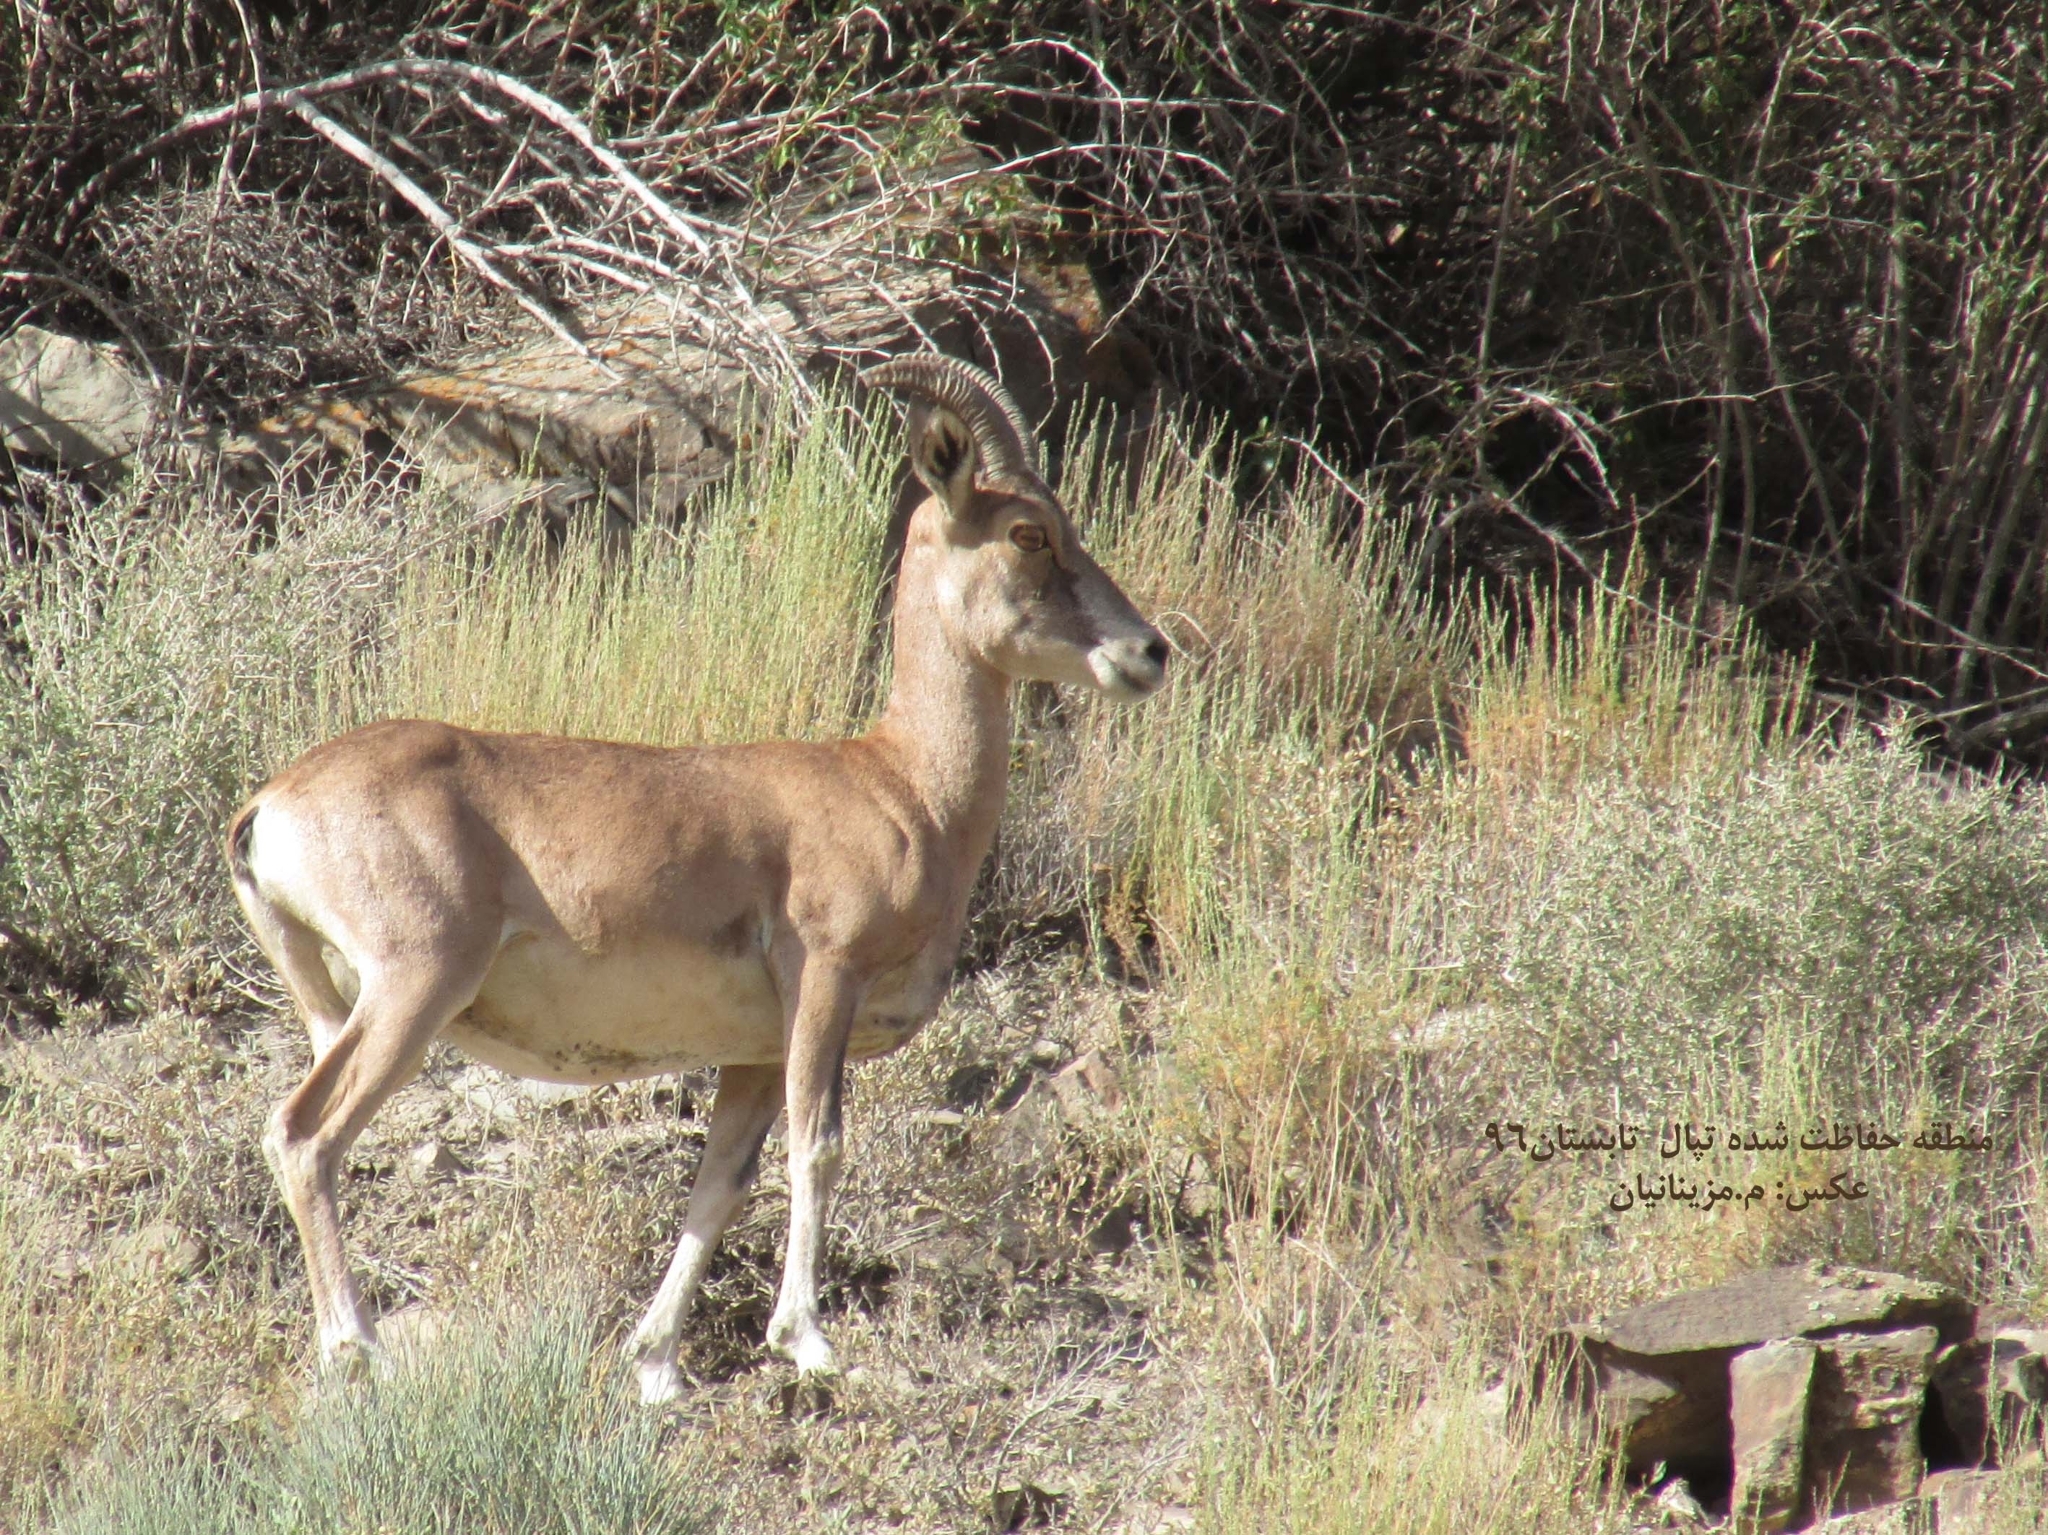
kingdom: Animalia
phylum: Chordata
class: Mammalia
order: Artiodactyla
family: Bovidae
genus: Ovis
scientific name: Ovis aries
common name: Domestic sheep
